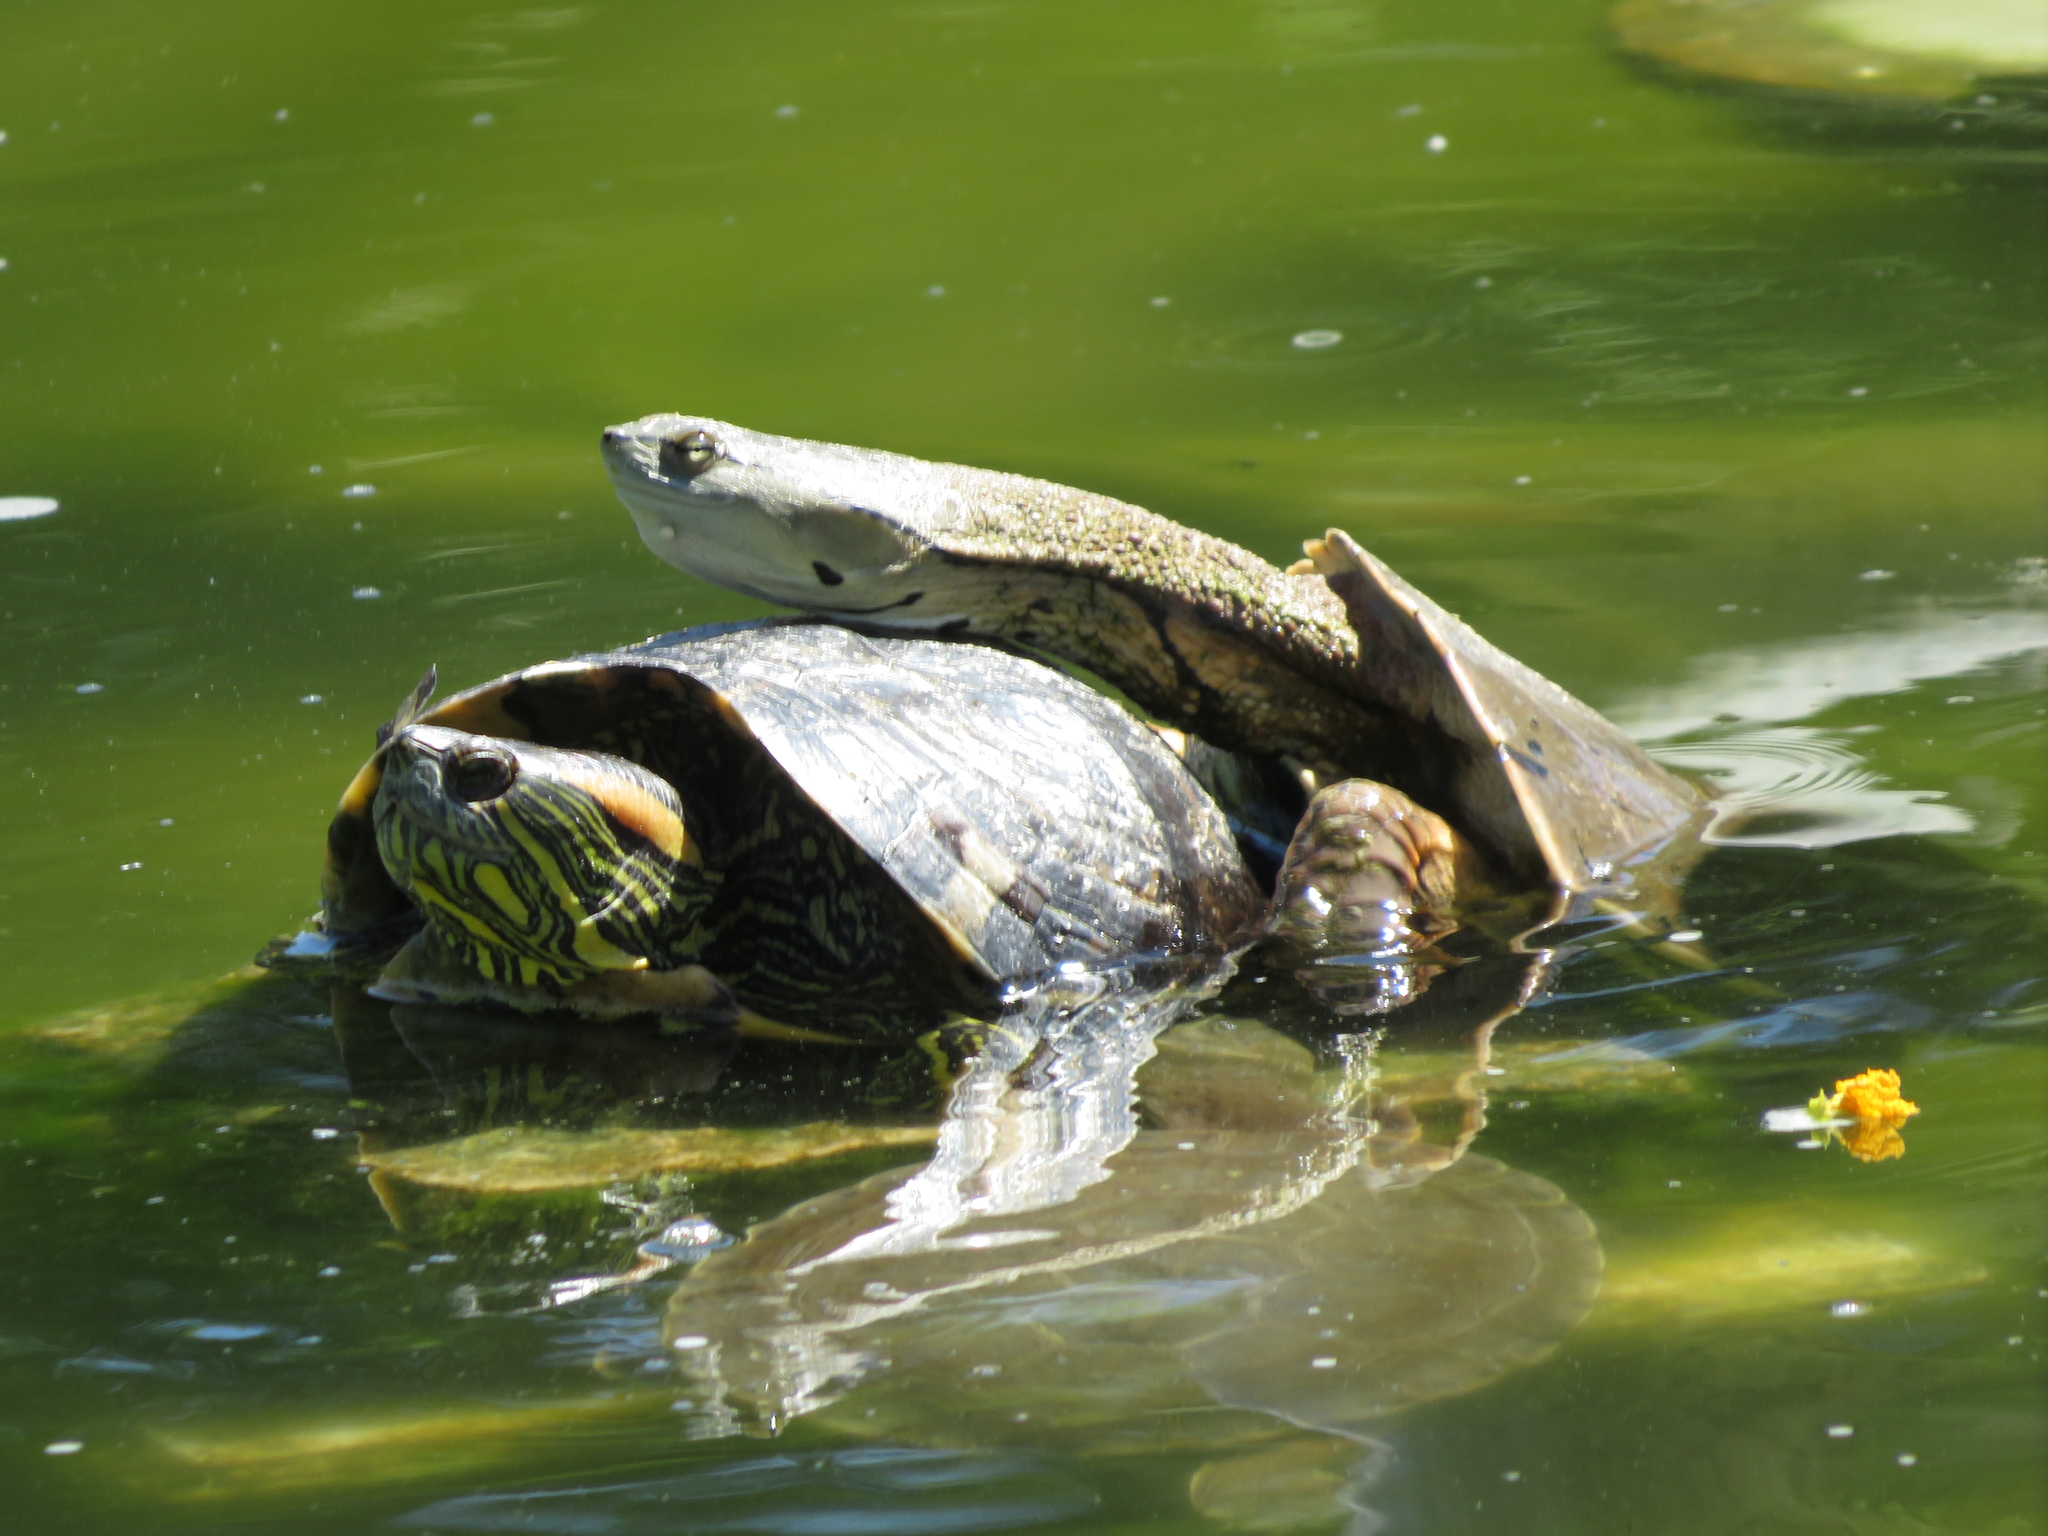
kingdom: Animalia
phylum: Chordata
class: Testudines
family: Chelidae
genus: Phrynops
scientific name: Phrynops hilarii
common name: Side-necked turtle of saint hillaire
